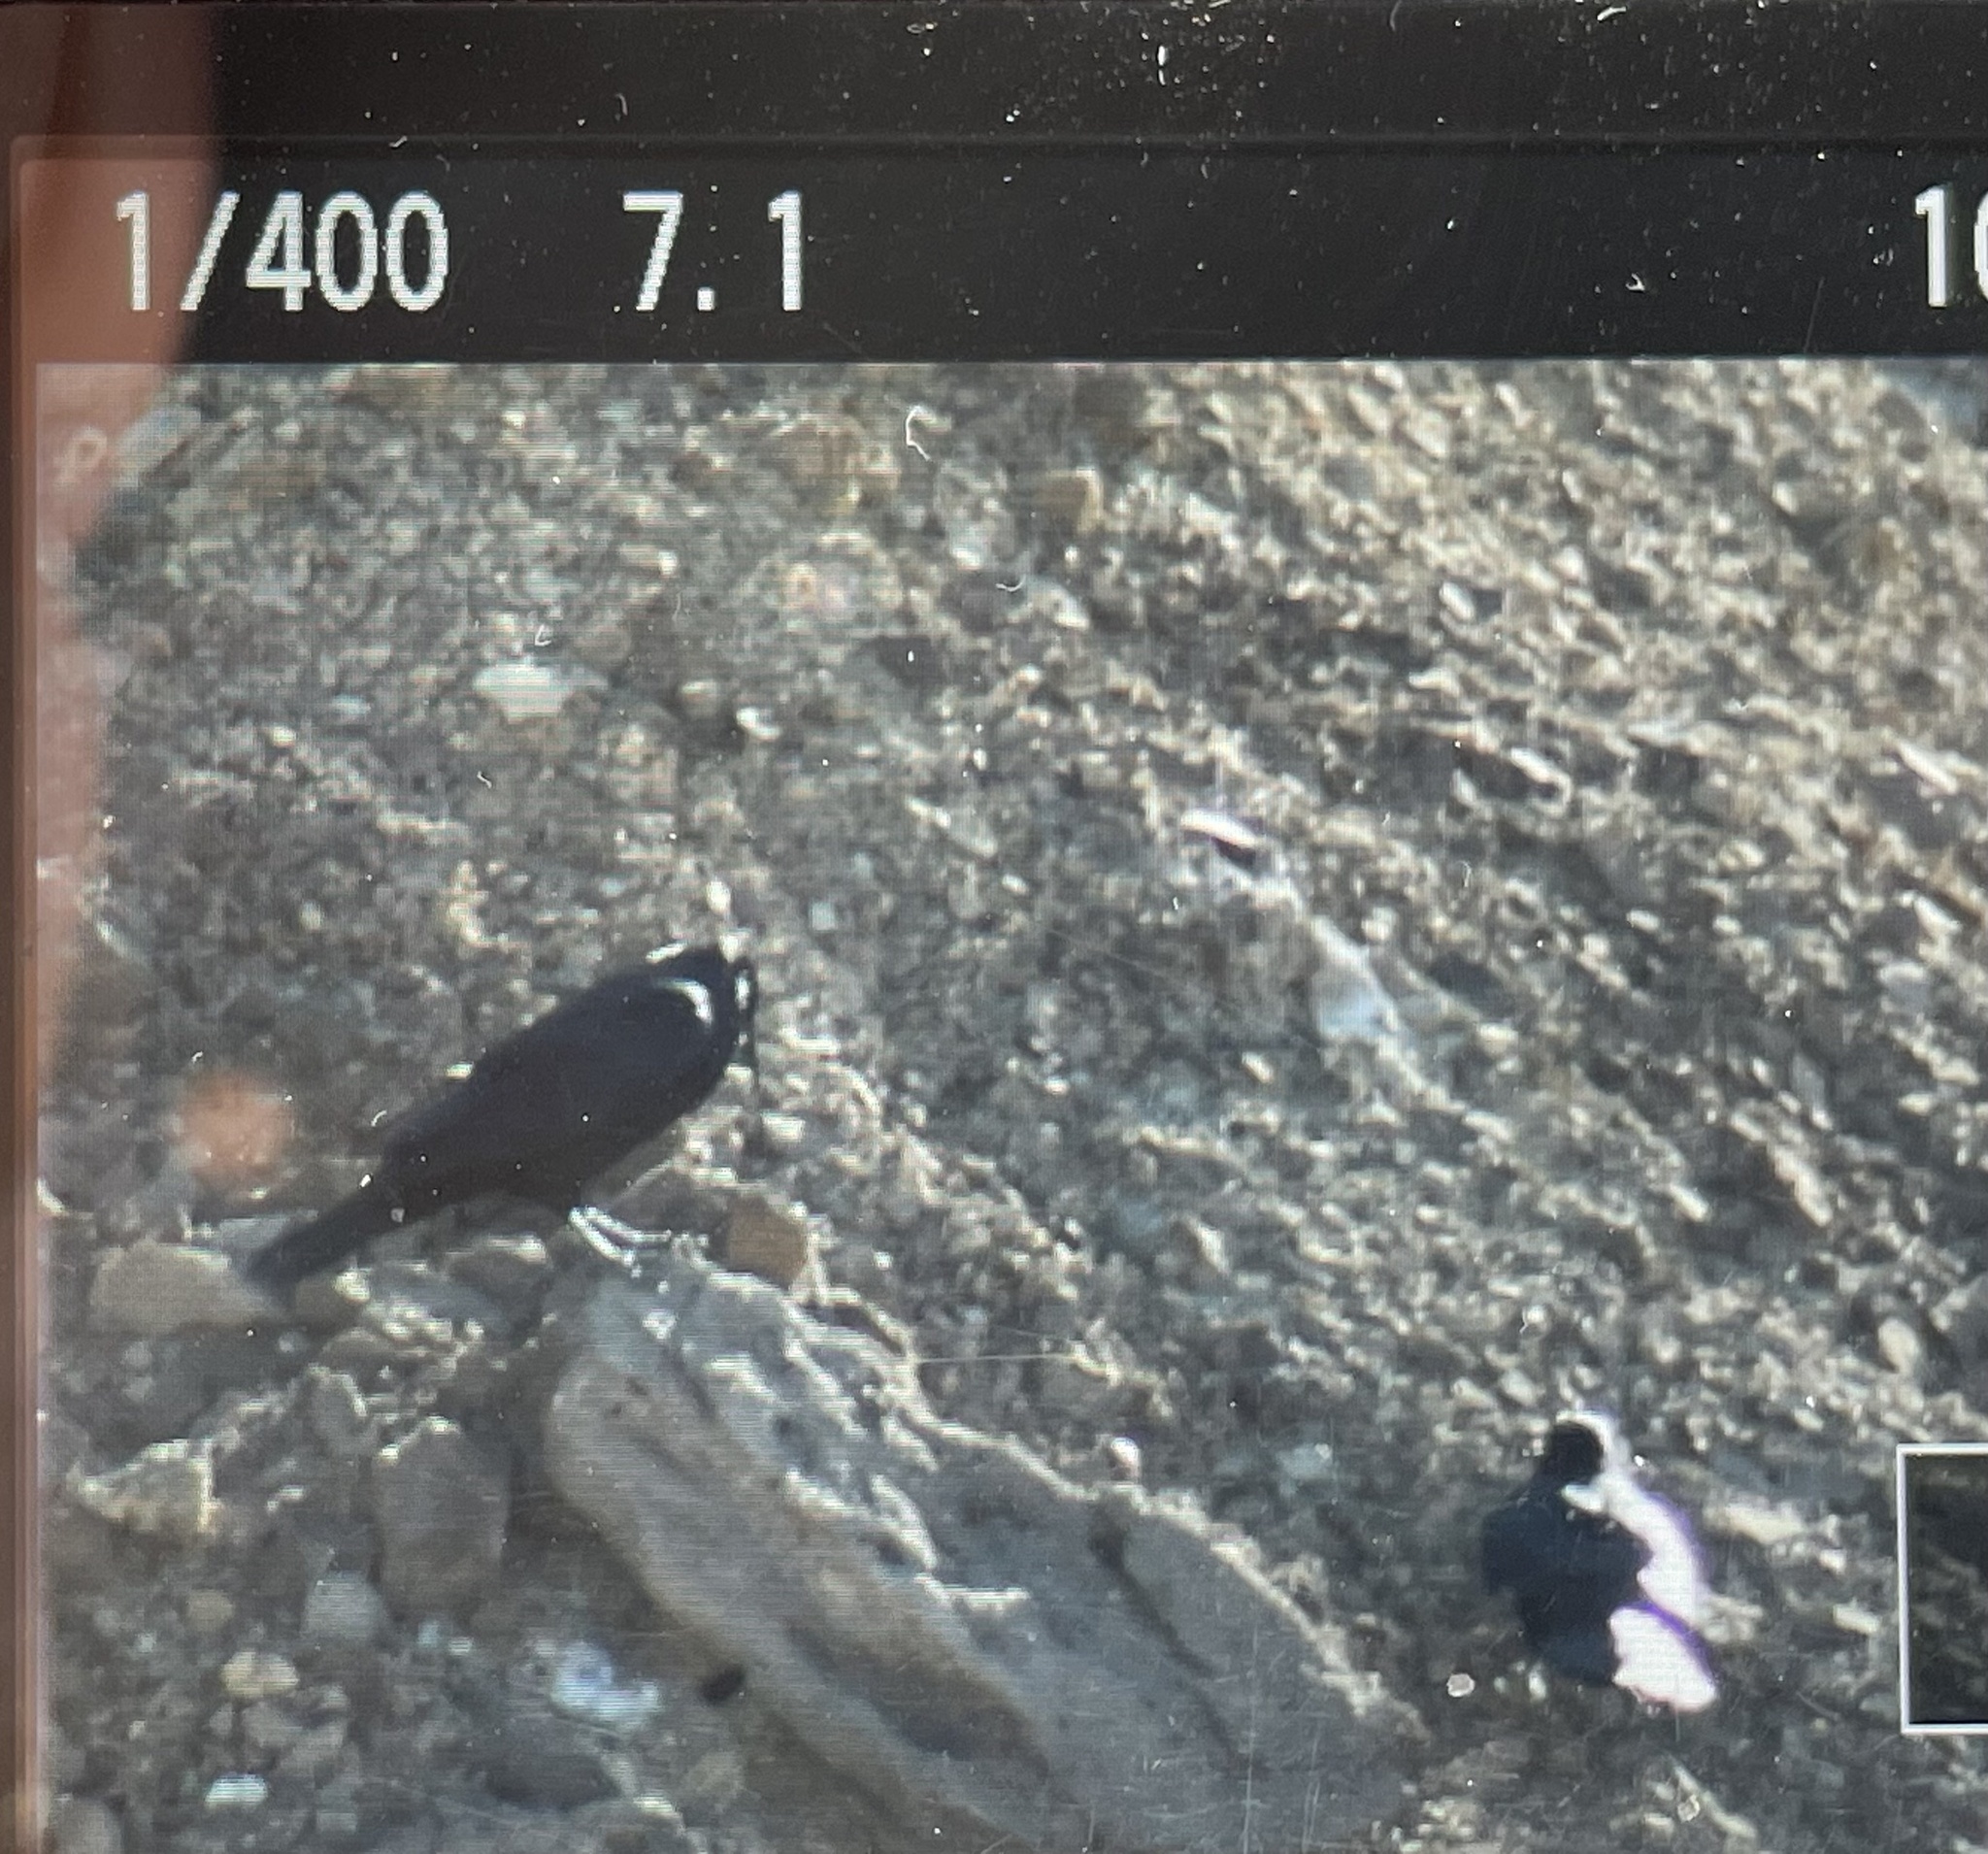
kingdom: Animalia
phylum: Chordata
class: Aves
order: Passeriformes
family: Corvidae
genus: Corvus
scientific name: Corvus corax
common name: Common raven
